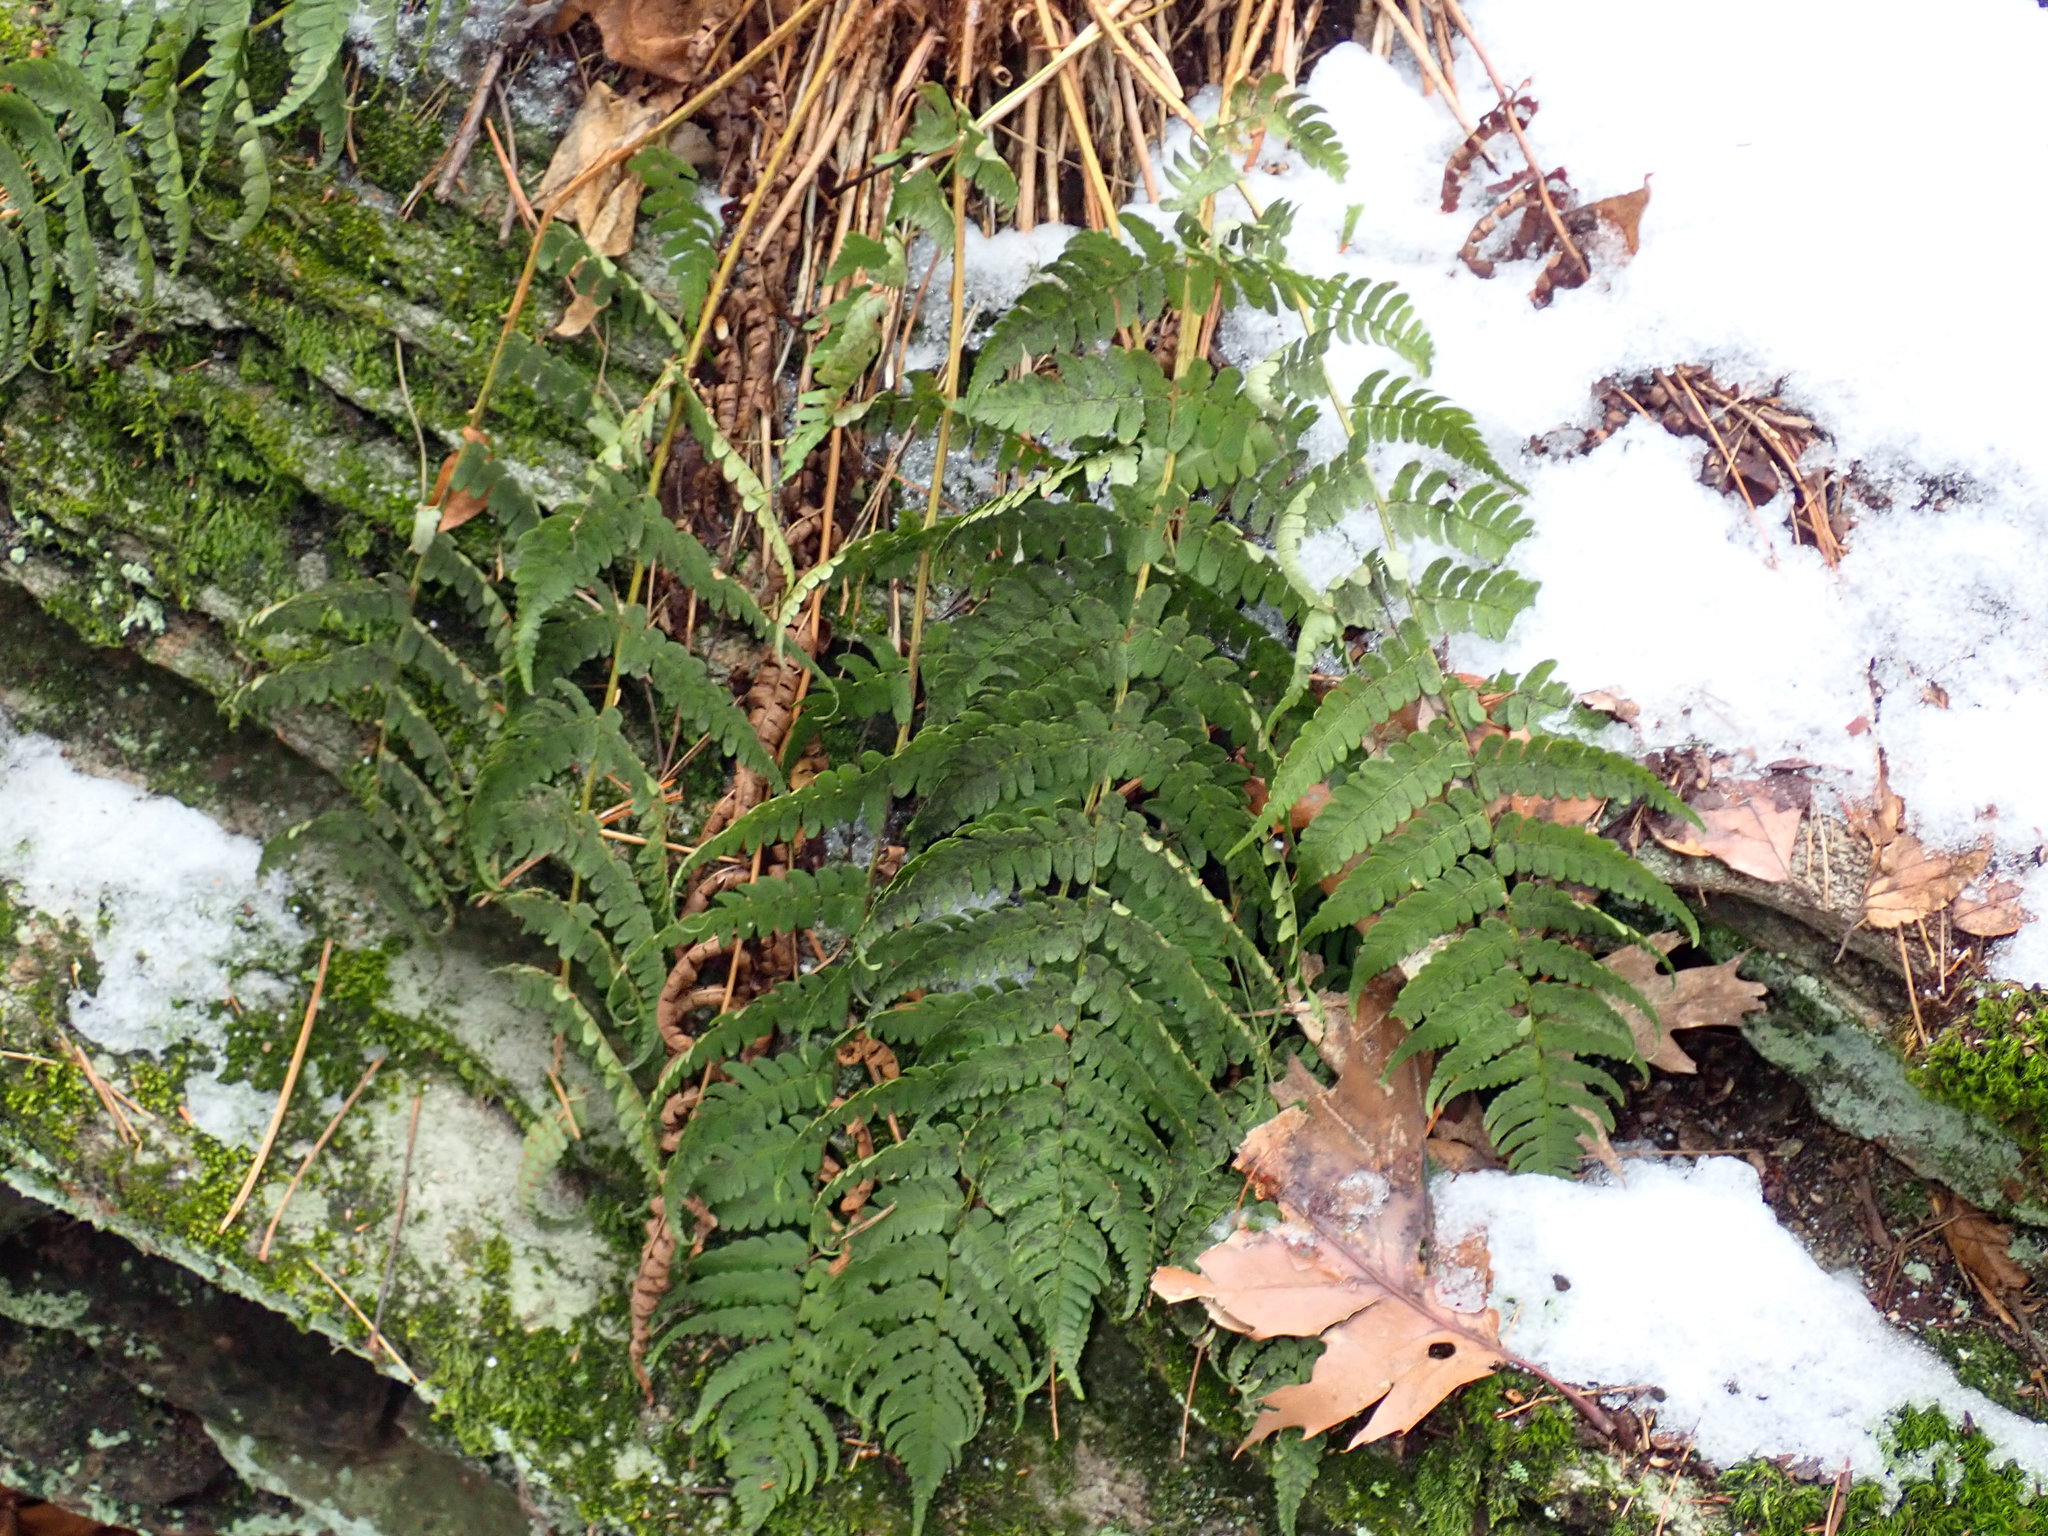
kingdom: Plantae
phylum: Tracheophyta
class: Polypodiopsida
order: Polypodiales
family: Dryopteridaceae
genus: Dryopteris
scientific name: Dryopteris marginalis
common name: Marginal wood fern
